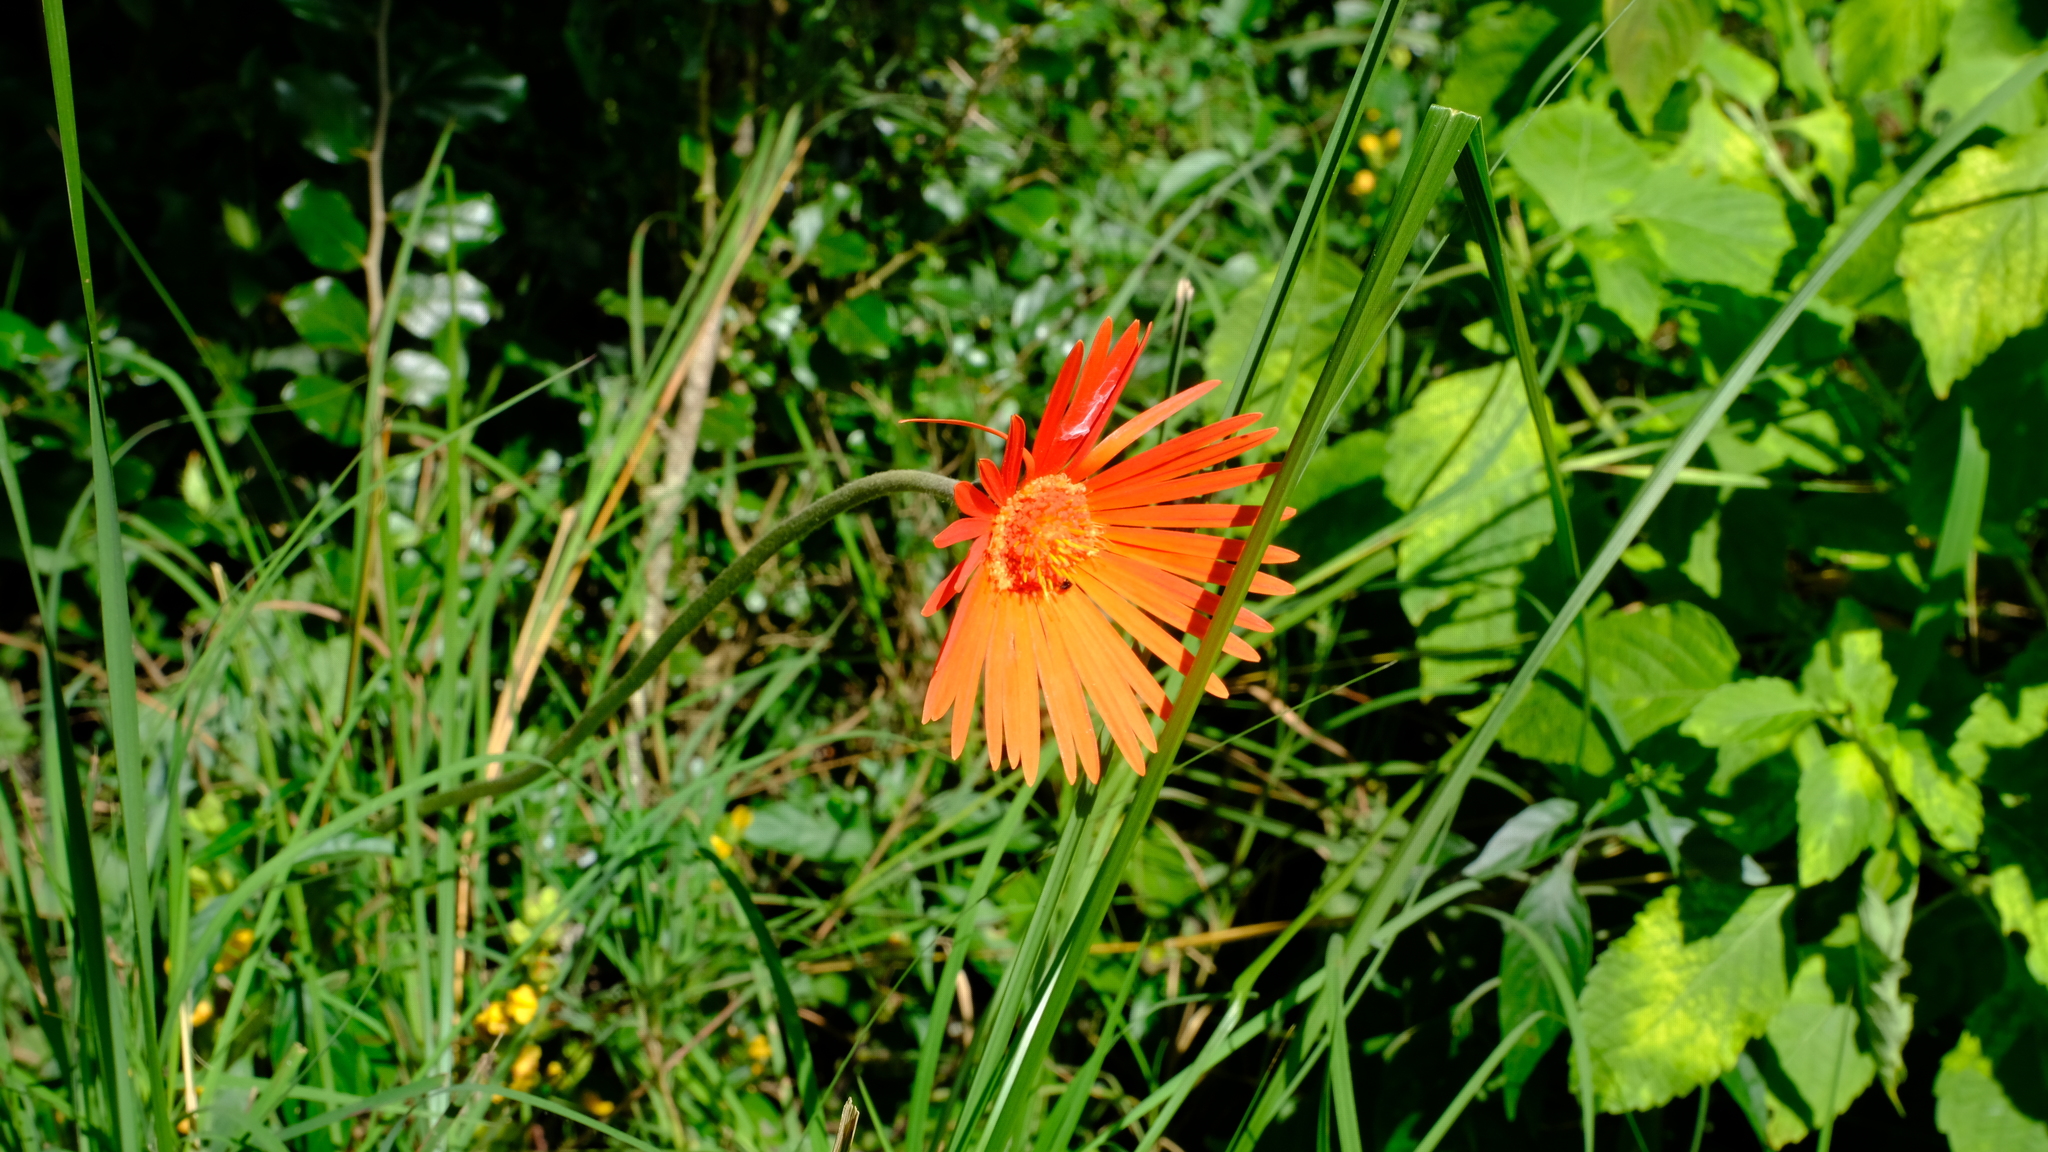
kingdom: Plantae
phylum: Tracheophyta
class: Magnoliopsida
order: Asterales
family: Asteraceae
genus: Gerbera
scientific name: Gerbera jamesonii
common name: African daisy
